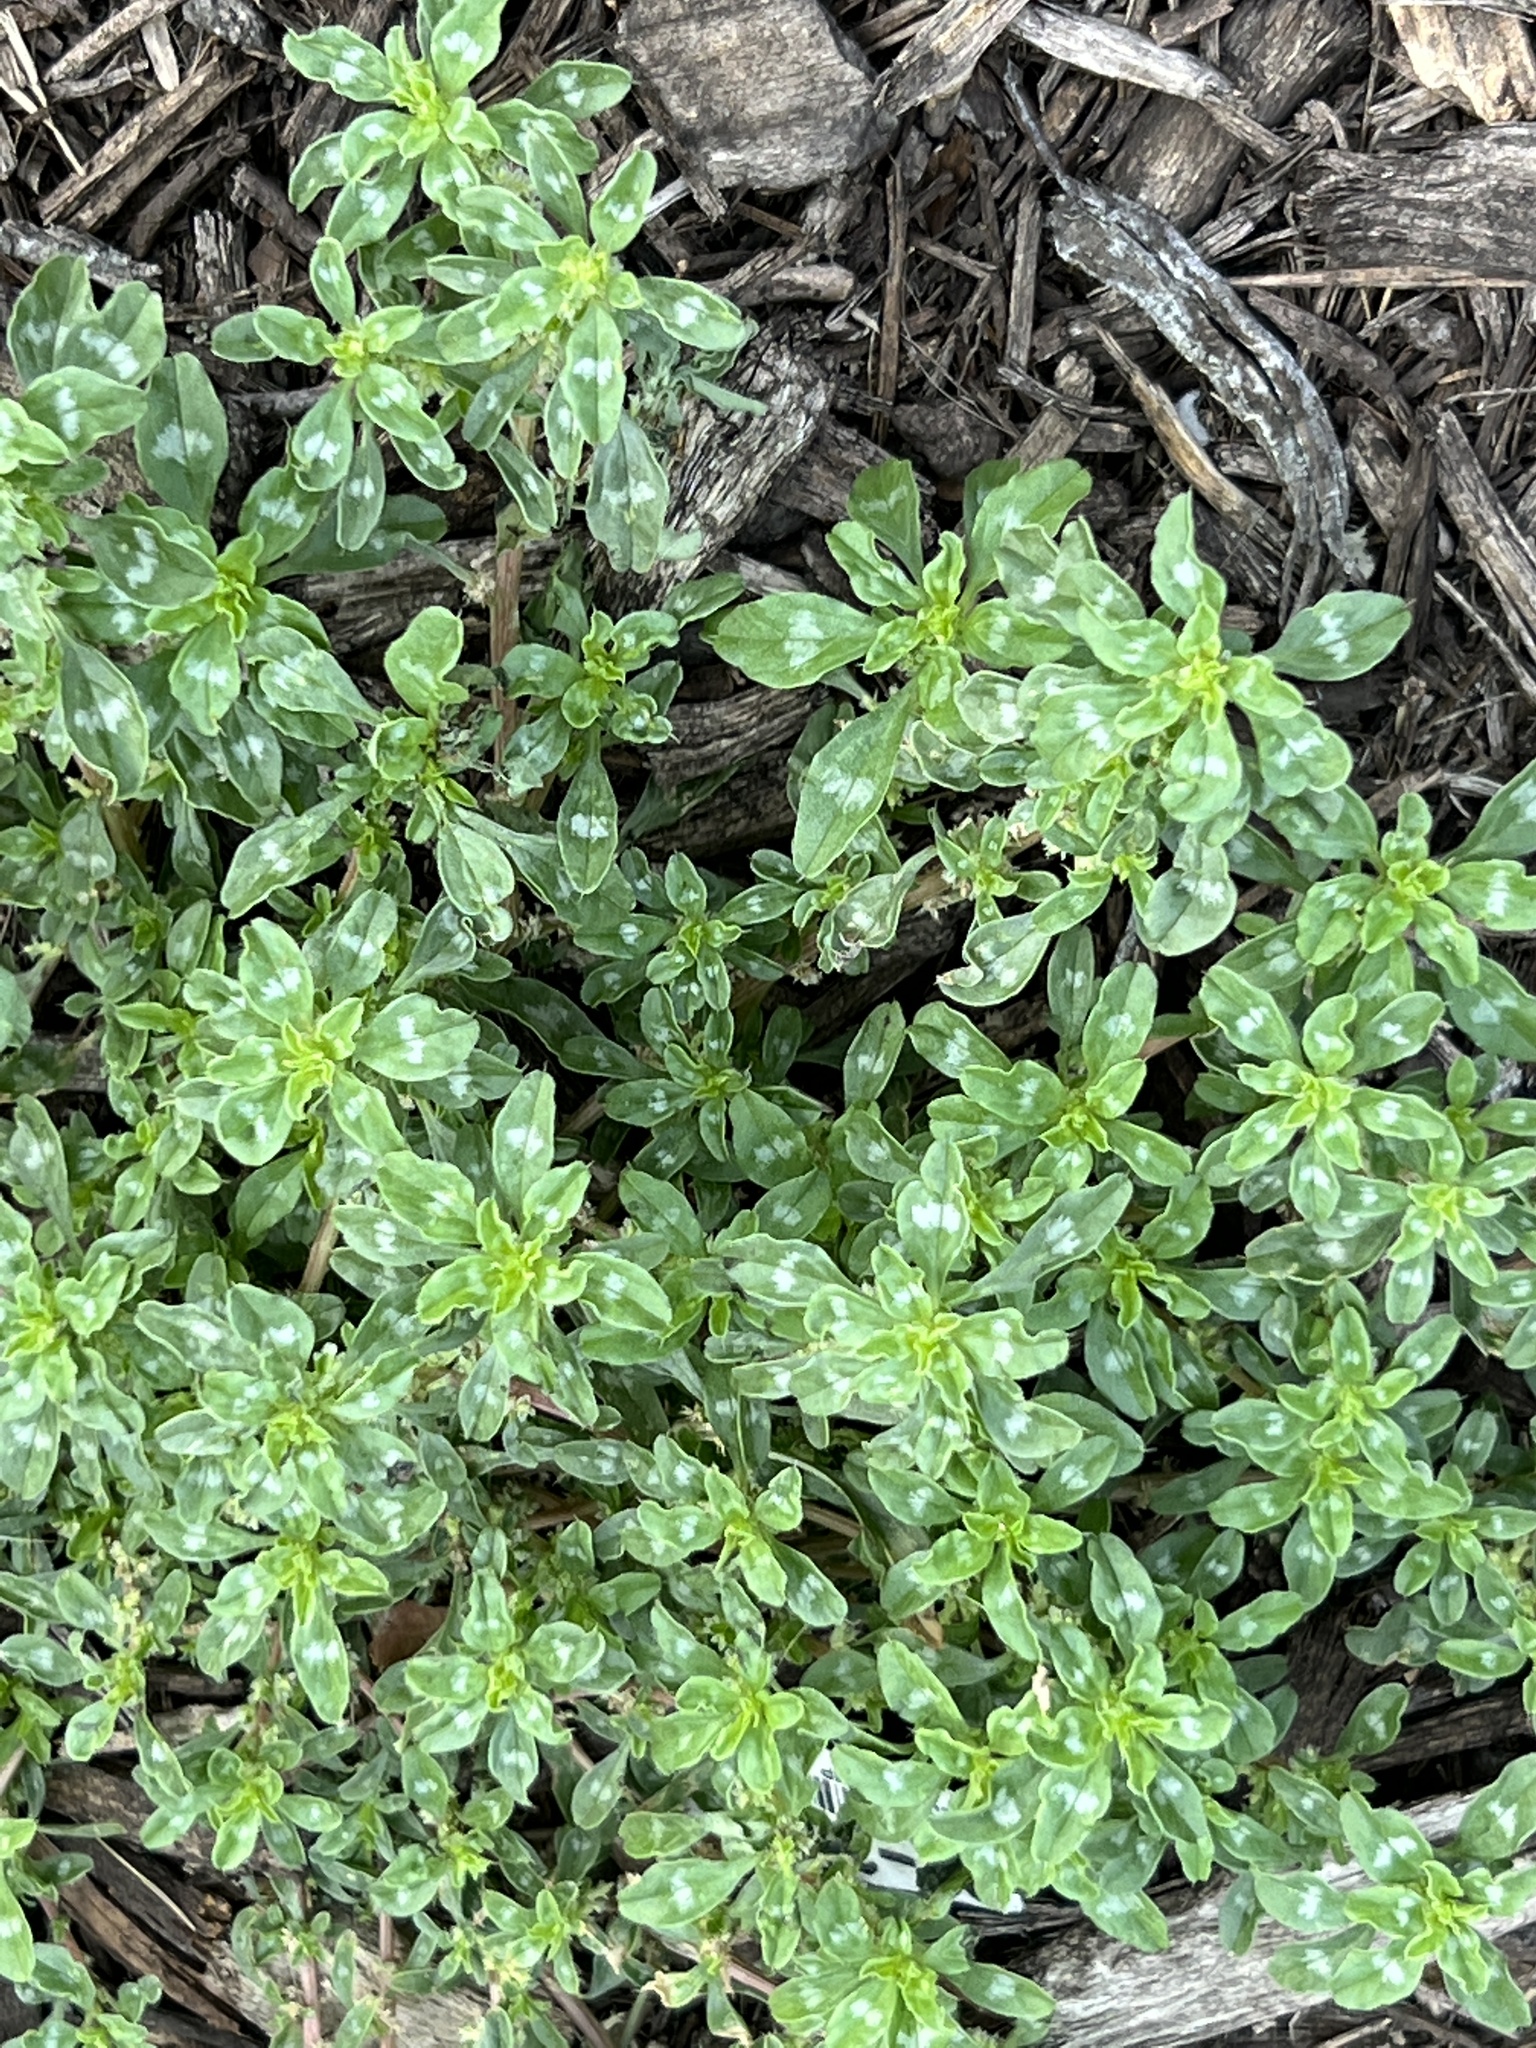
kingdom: Plantae
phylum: Tracheophyta
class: Magnoliopsida
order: Caryophyllales
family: Amaranthaceae
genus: Amaranthus
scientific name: Amaranthus polygonoides
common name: Tropical amaranth
